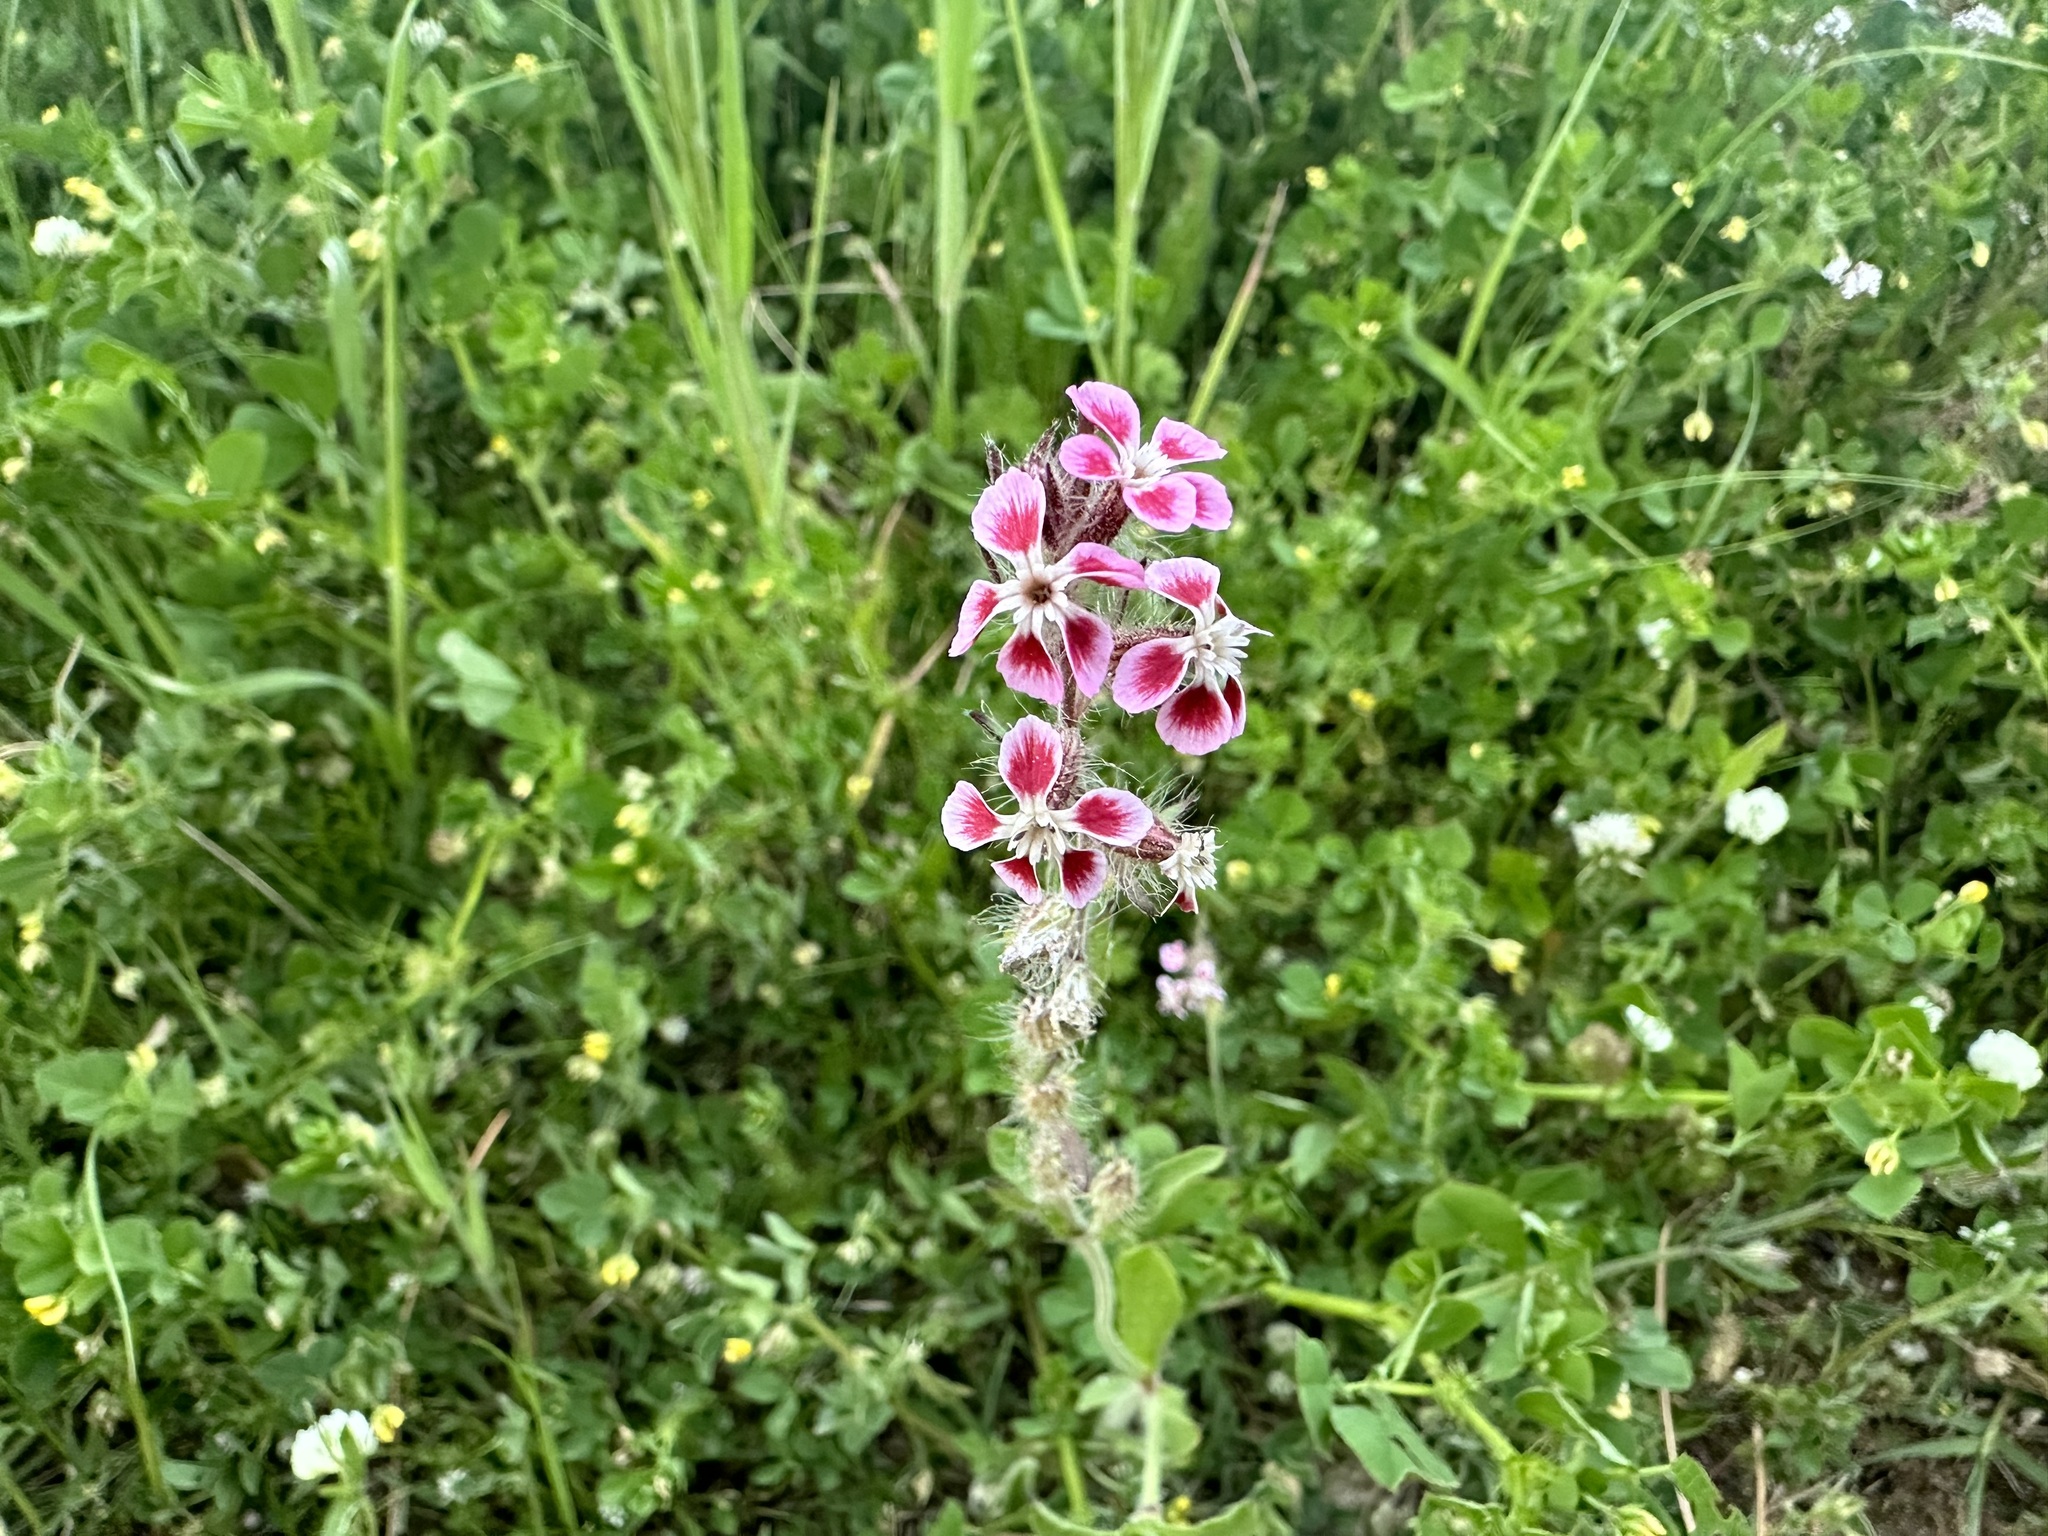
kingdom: Plantae
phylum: Tracheophyta
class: Magnoliopsida
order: Caryophyllales
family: Caryophyllaceae
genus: Silene
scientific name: Silene gallica
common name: Small-flowered catchfly
